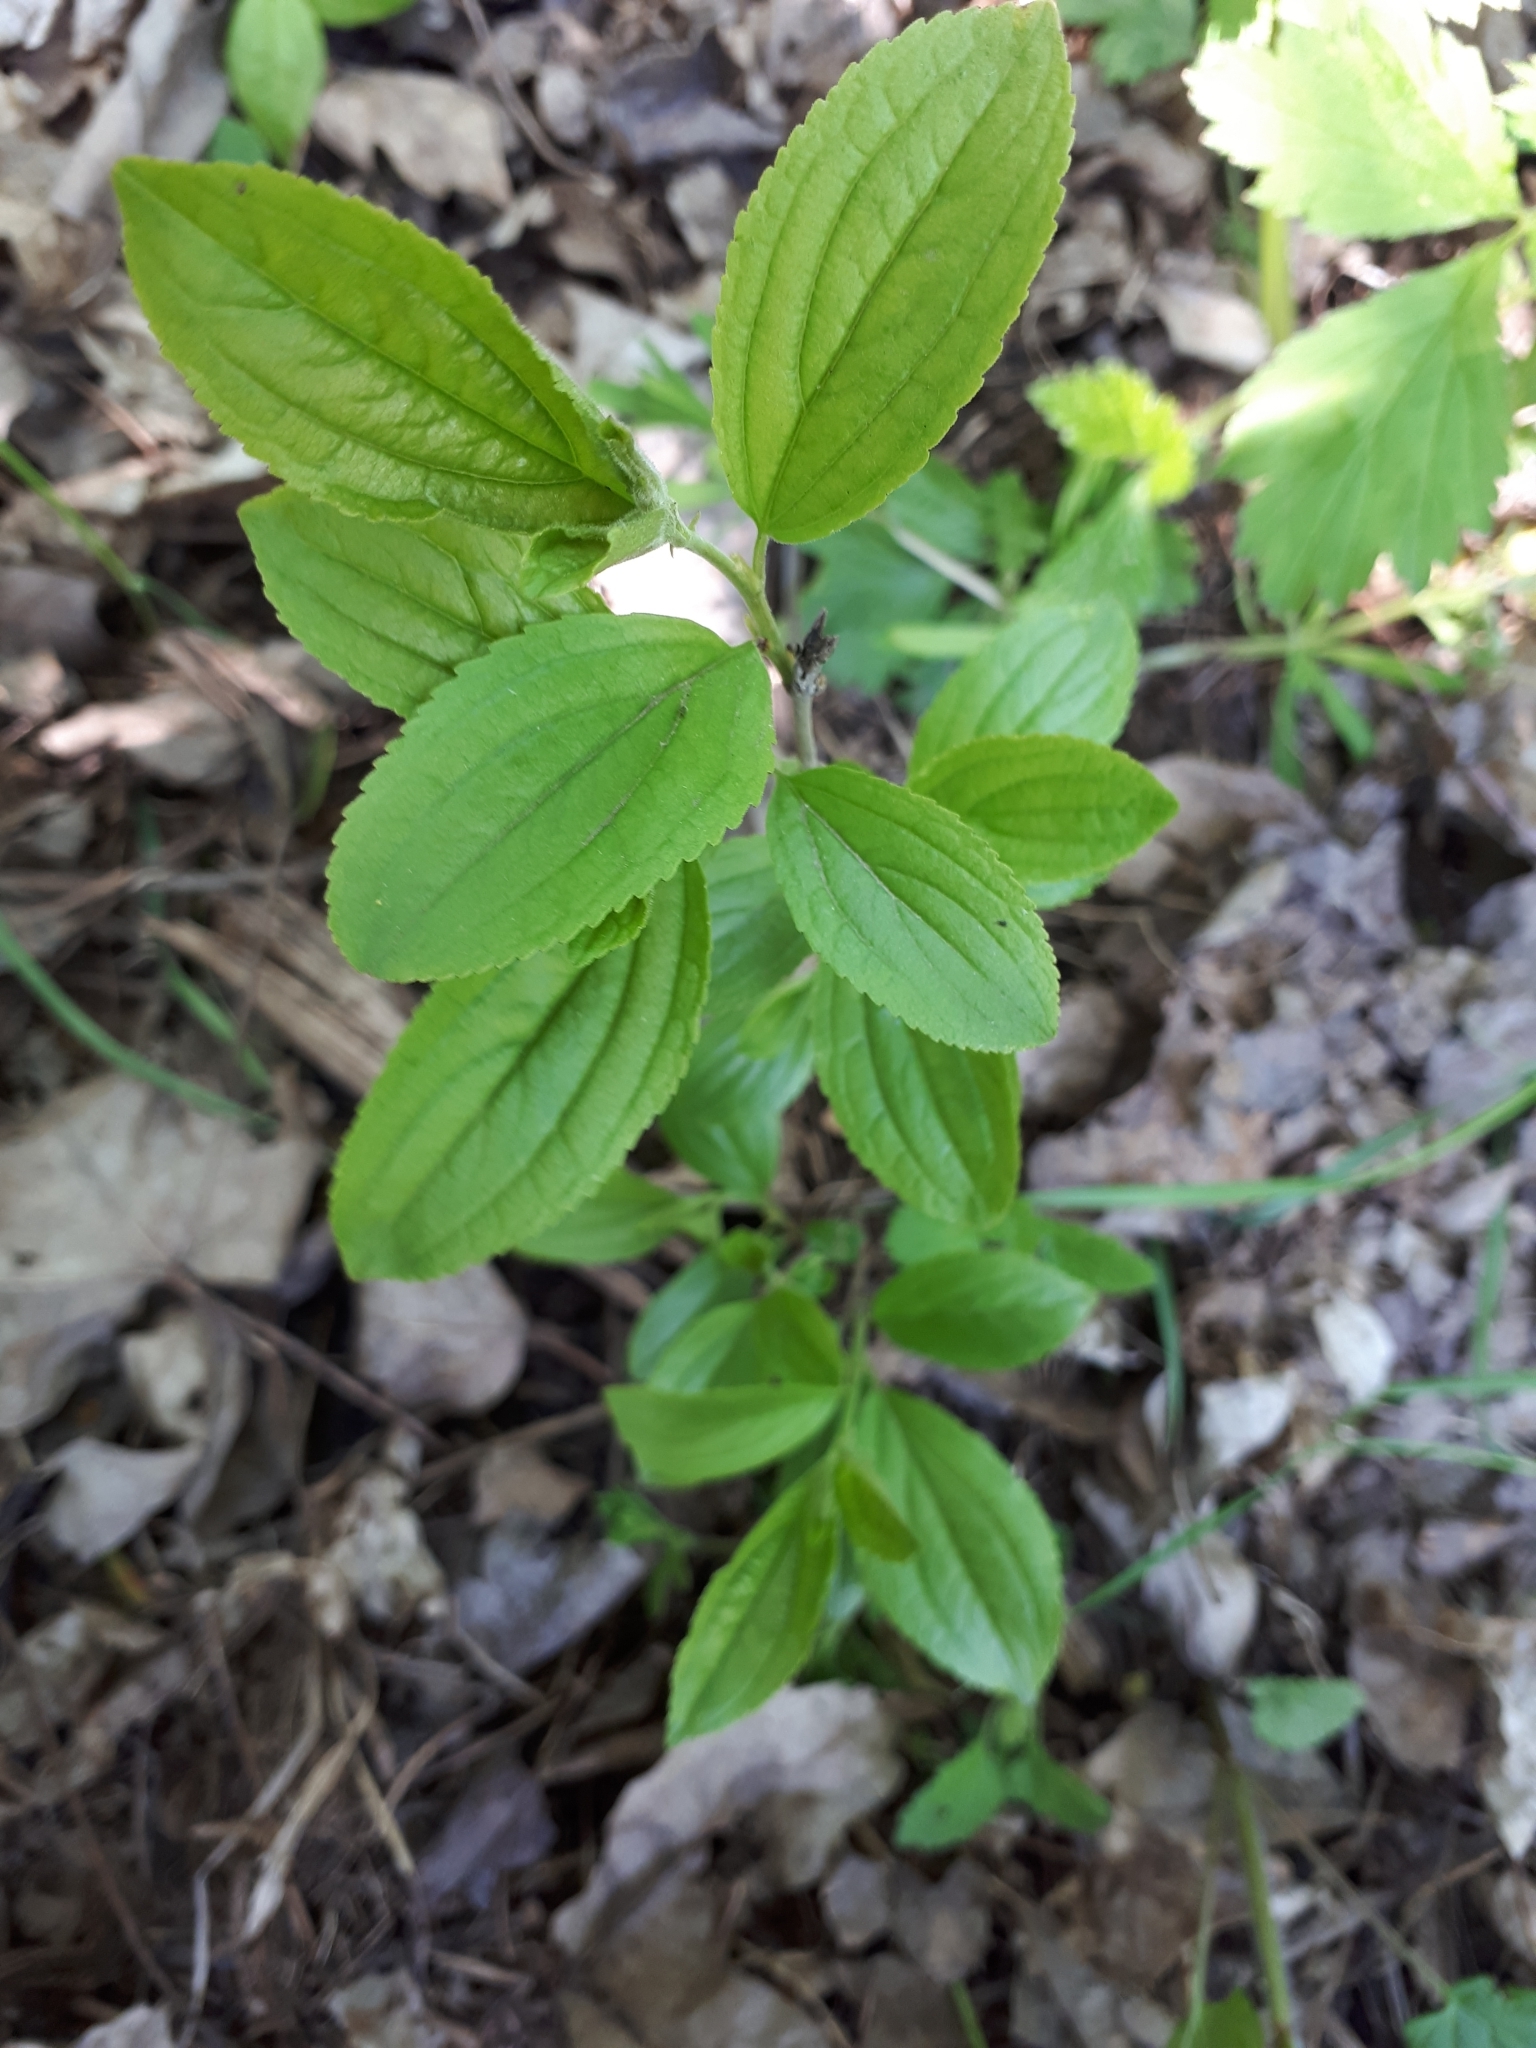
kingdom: Plantae
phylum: Tracheophyta
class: Magnoliopsida
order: Rosales
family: Rhamnaceae
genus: Rhamnus
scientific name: Rhamnus cathartica
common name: Common buckthorn
